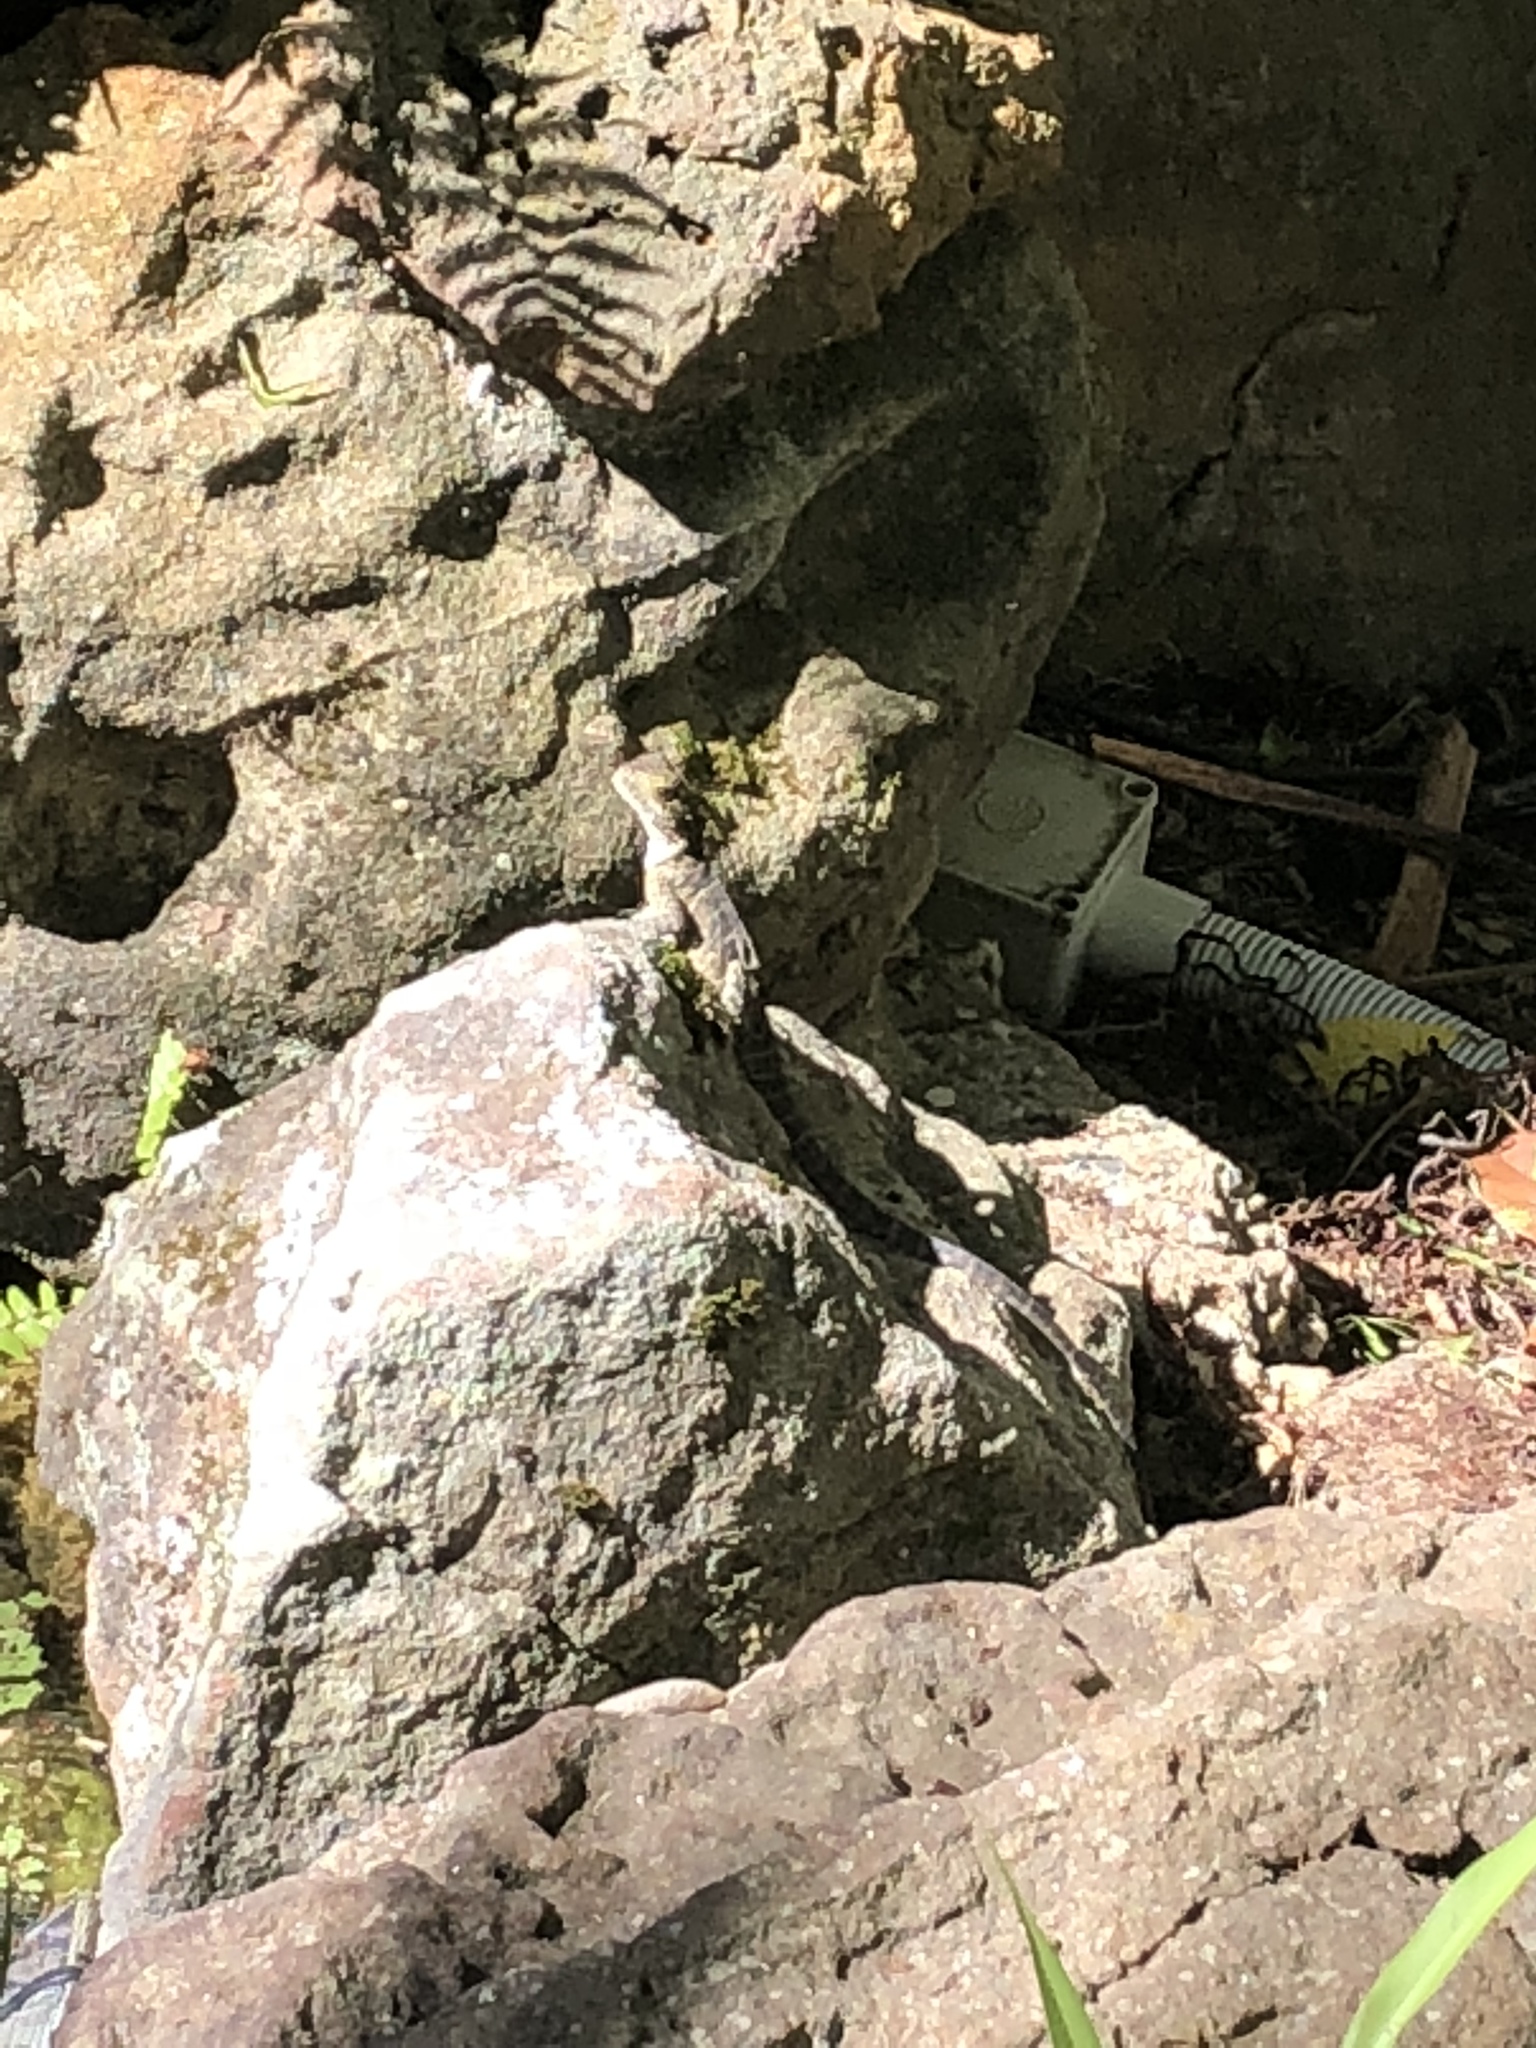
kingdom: Animalia
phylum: Chordata
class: Squamata
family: Agamidae
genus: Intellagama
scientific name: Intellagama lesueurii
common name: Eastern water dragon
